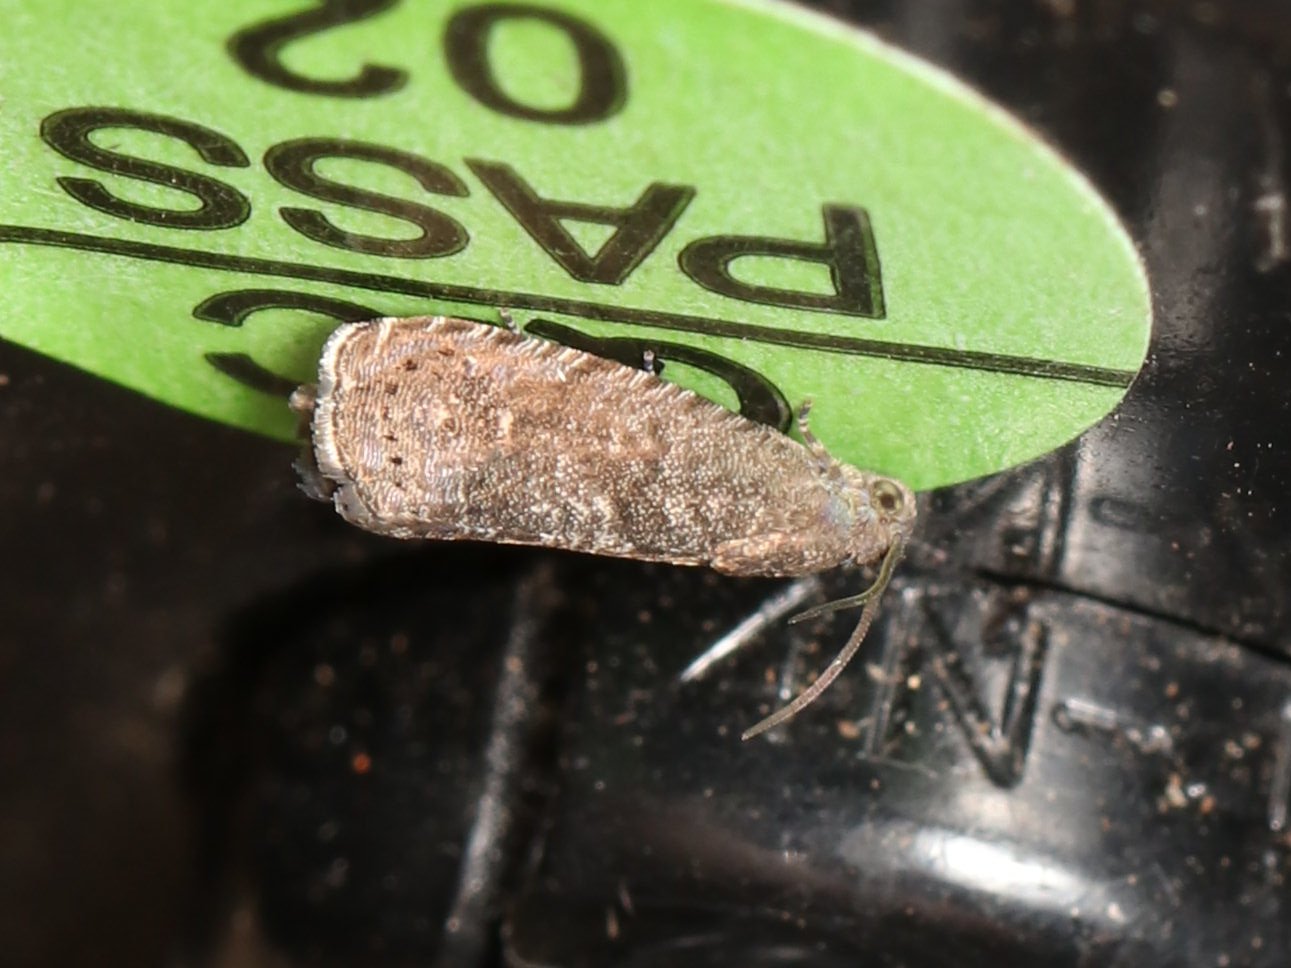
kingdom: Animalia
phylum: Arthropoda
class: Insecta
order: Lepidoptera
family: Noctuidae
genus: Aspila
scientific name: Aspila
